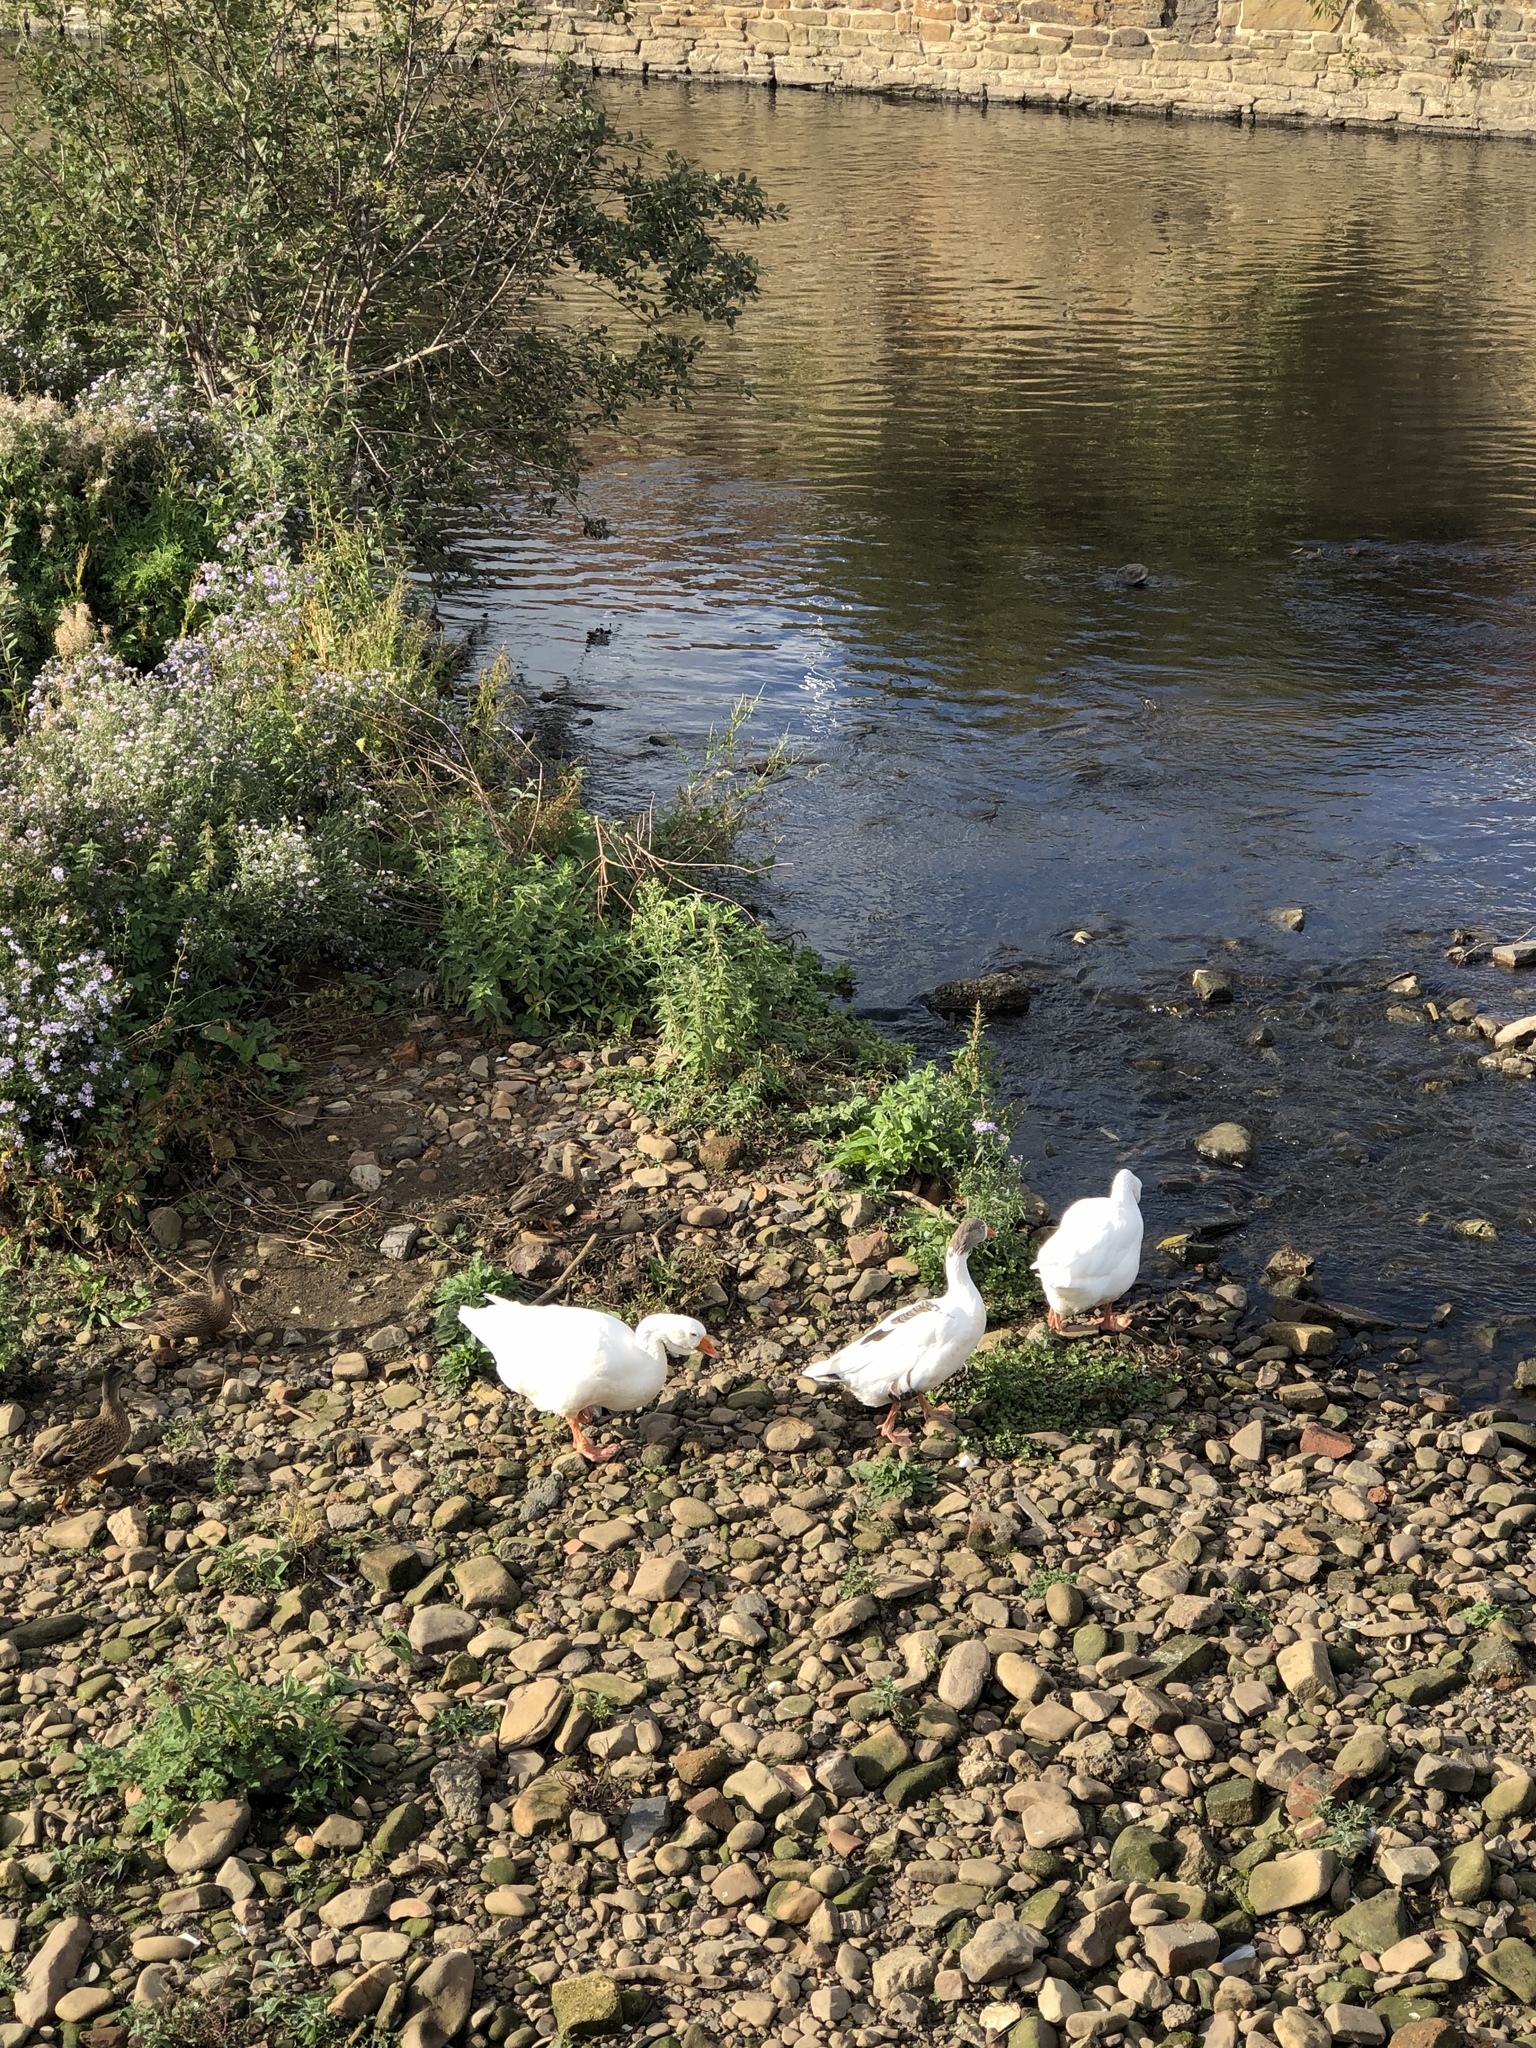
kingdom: Animalia
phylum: Chordata
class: Aves
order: Anseriformes
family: Anatidae
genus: Anser
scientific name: Anser anser
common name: Greylag goose
